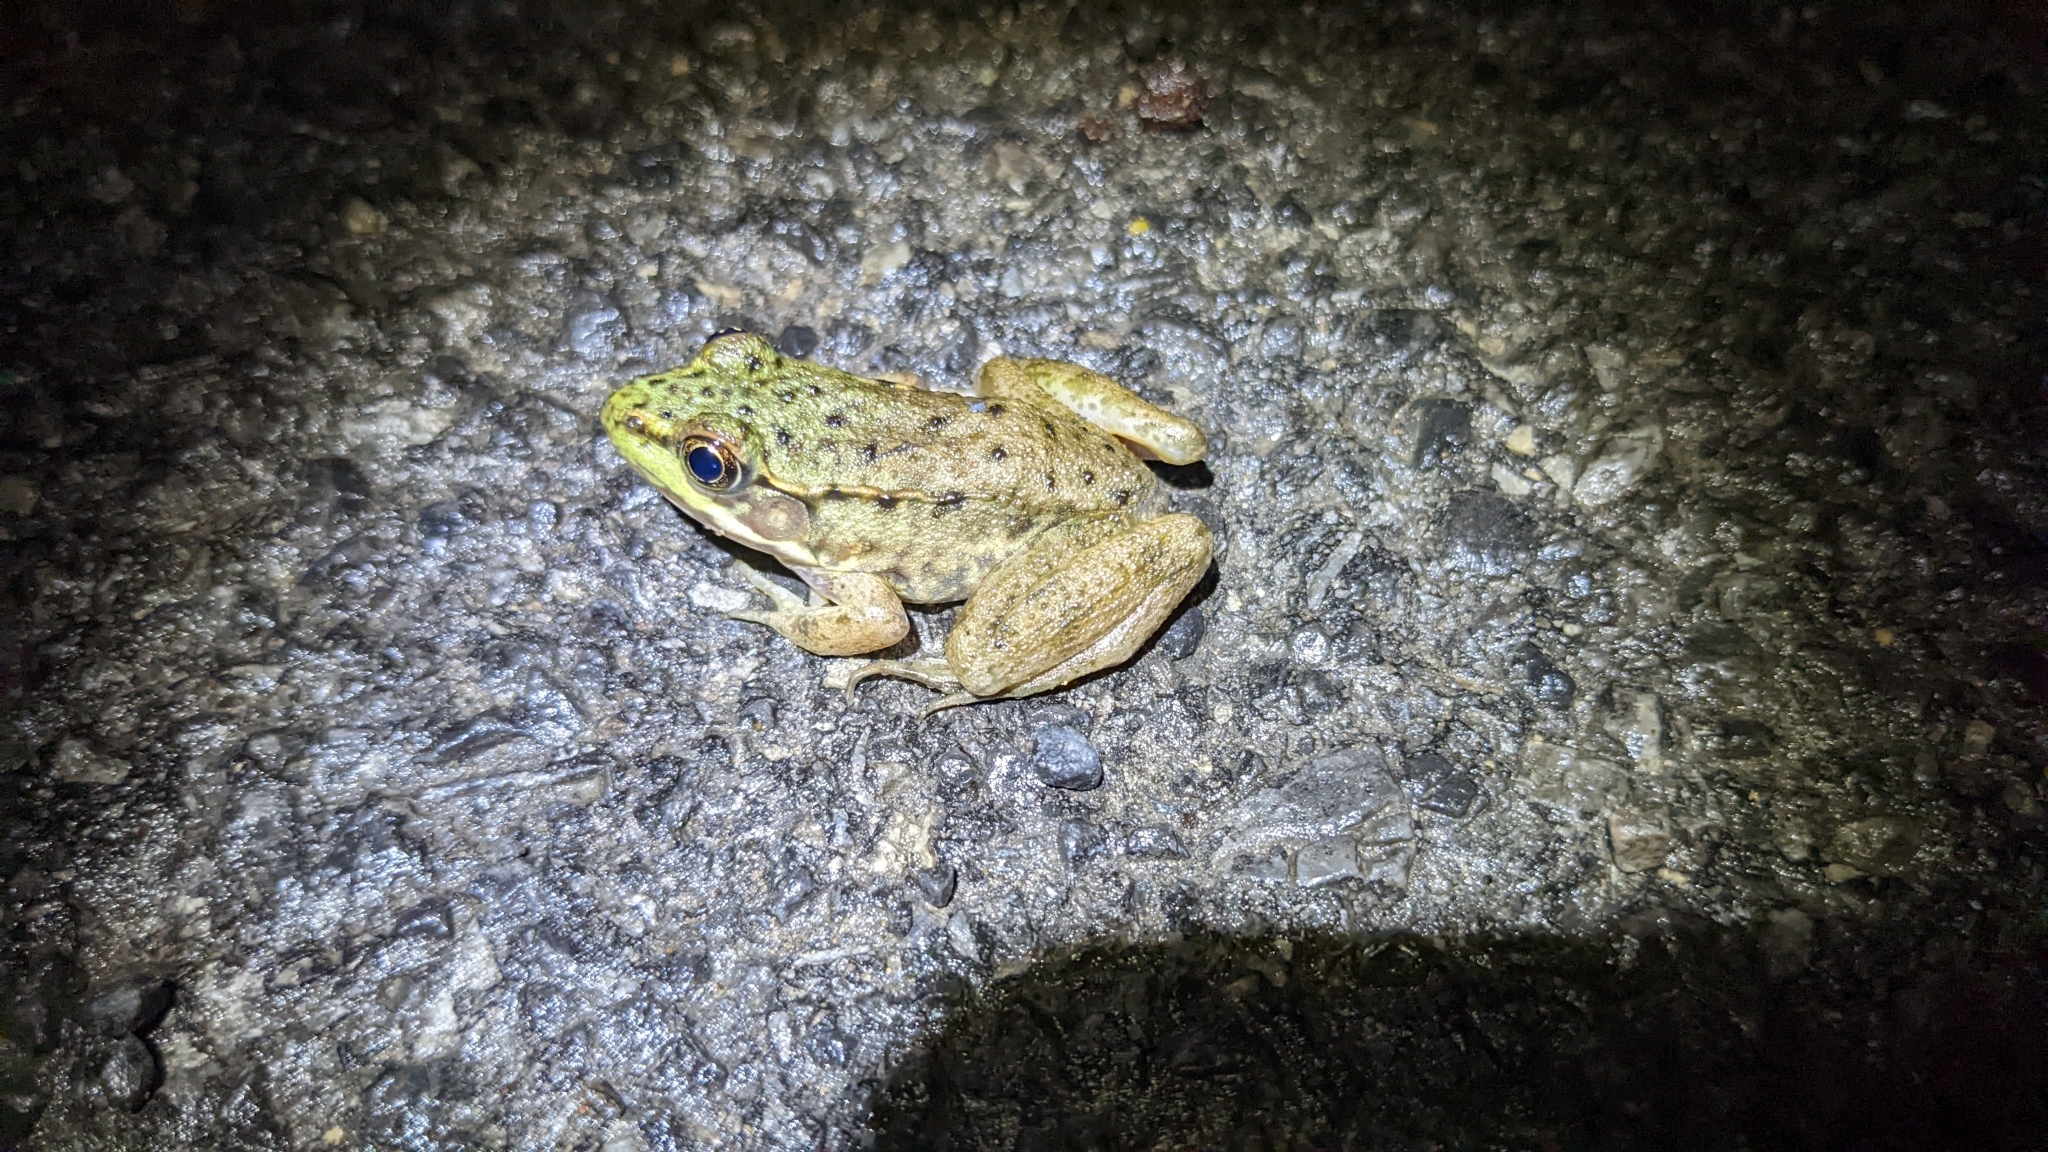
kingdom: Animalia
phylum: Chordata
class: Amphibia
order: Anura
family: Ranidae
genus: Lithobates
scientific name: Lithobates clamitans
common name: Green frog
